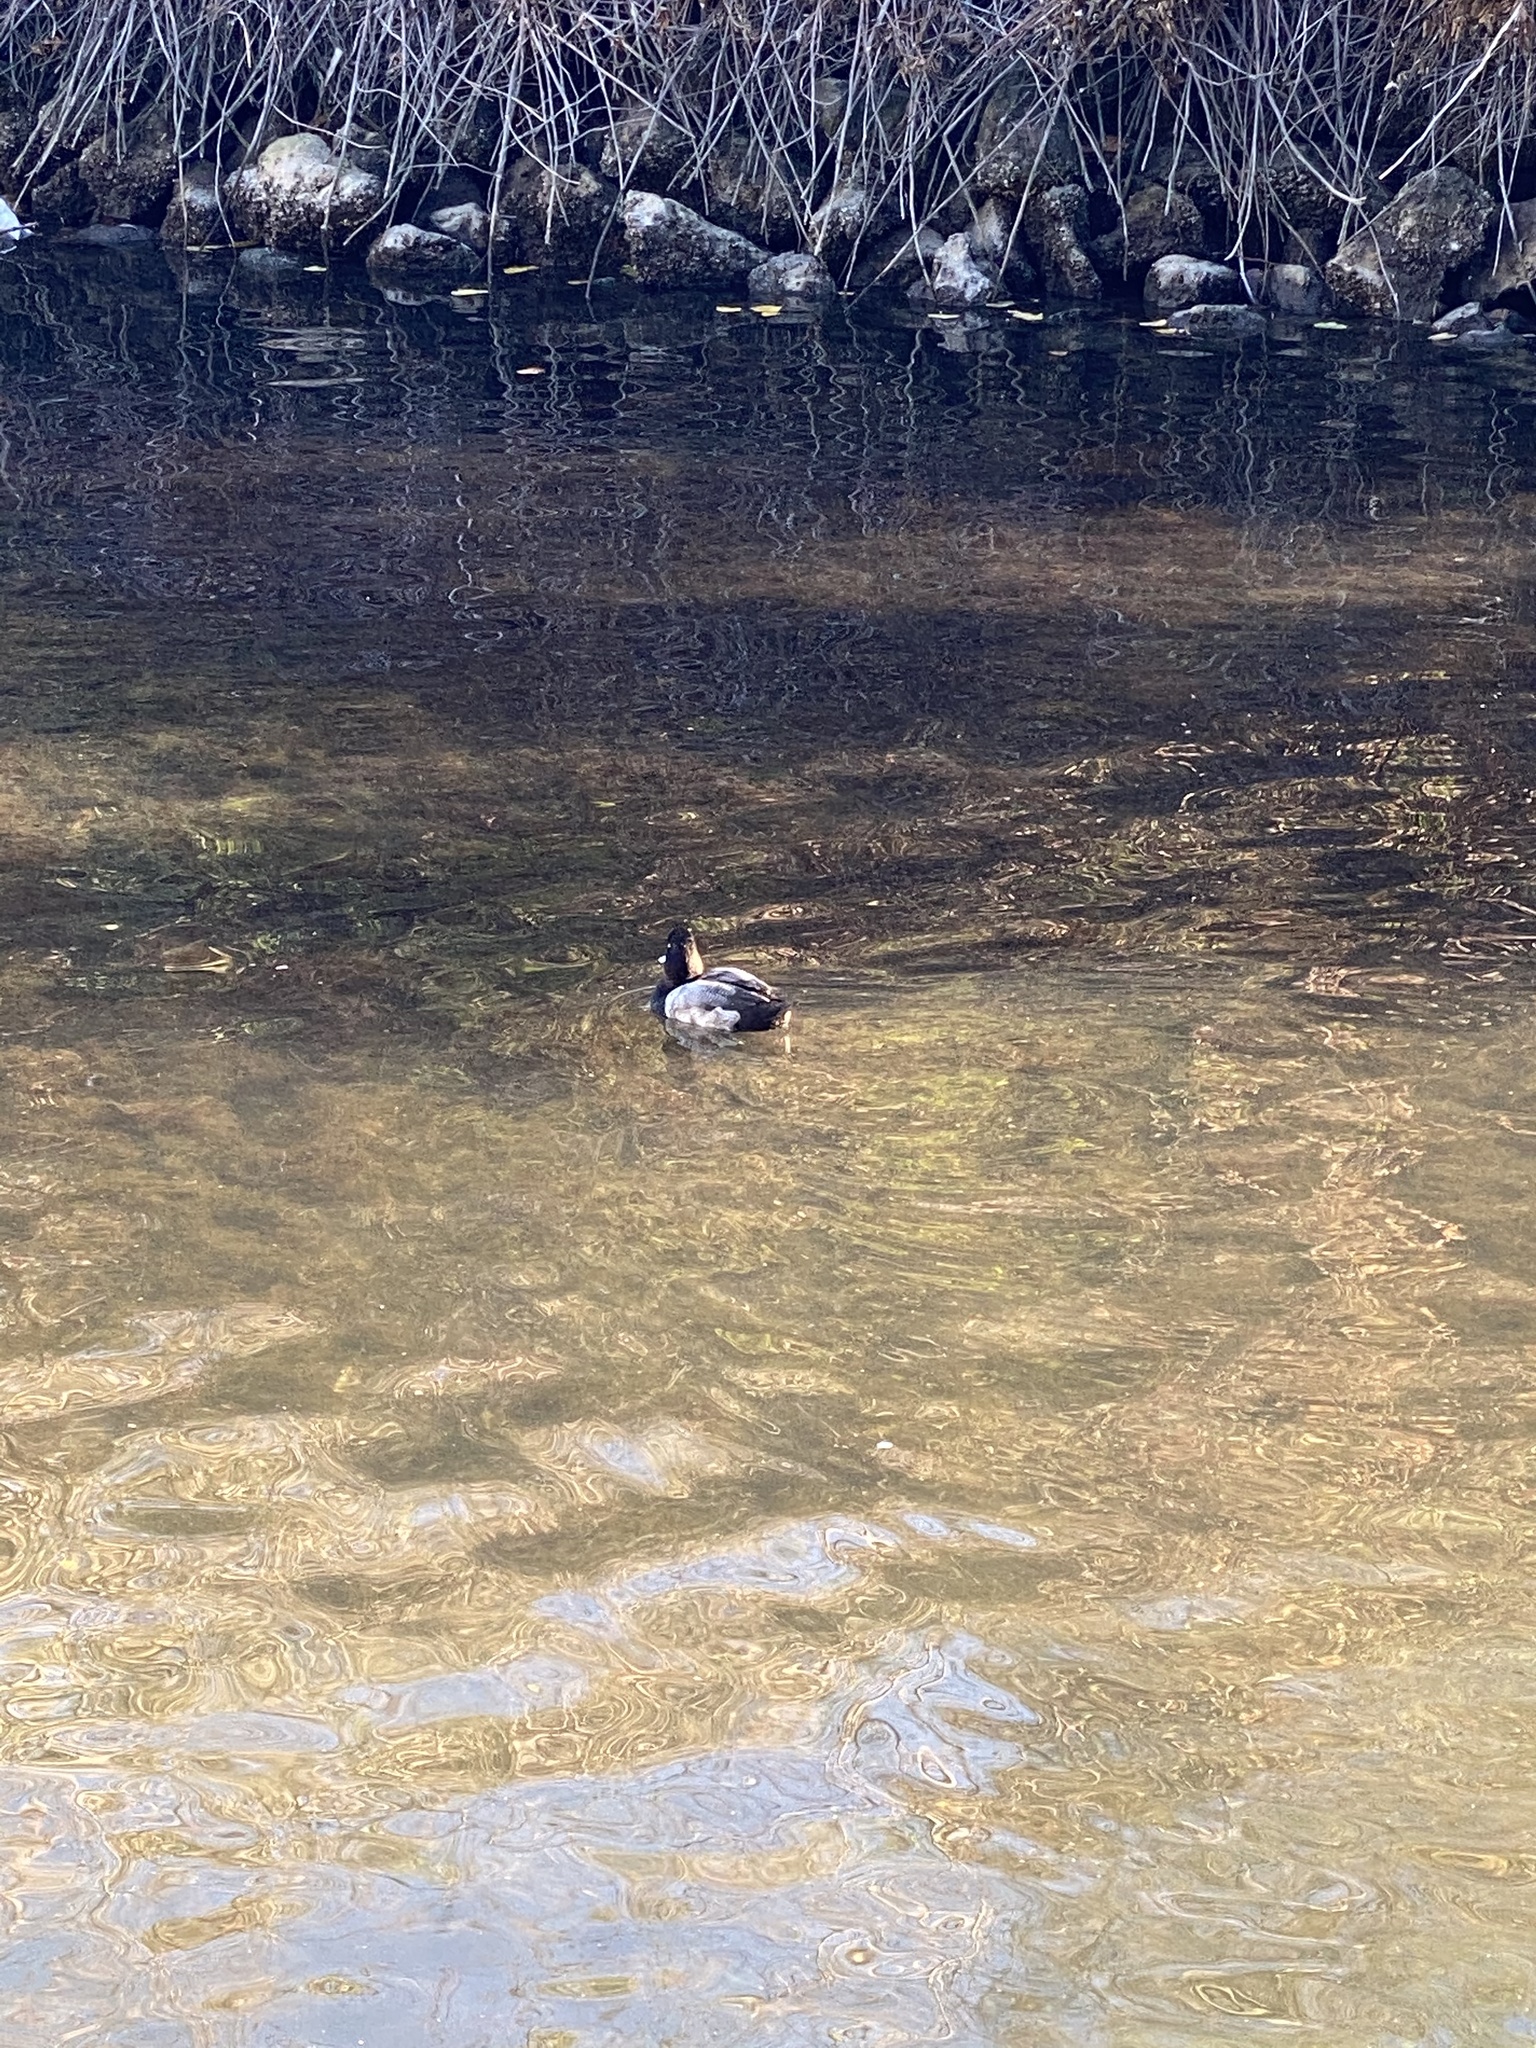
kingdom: Animalia
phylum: Chordata
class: Aves
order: Anseriformes
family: Anatidae
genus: Aythya
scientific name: Aythya affinis
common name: Lesser scaup
